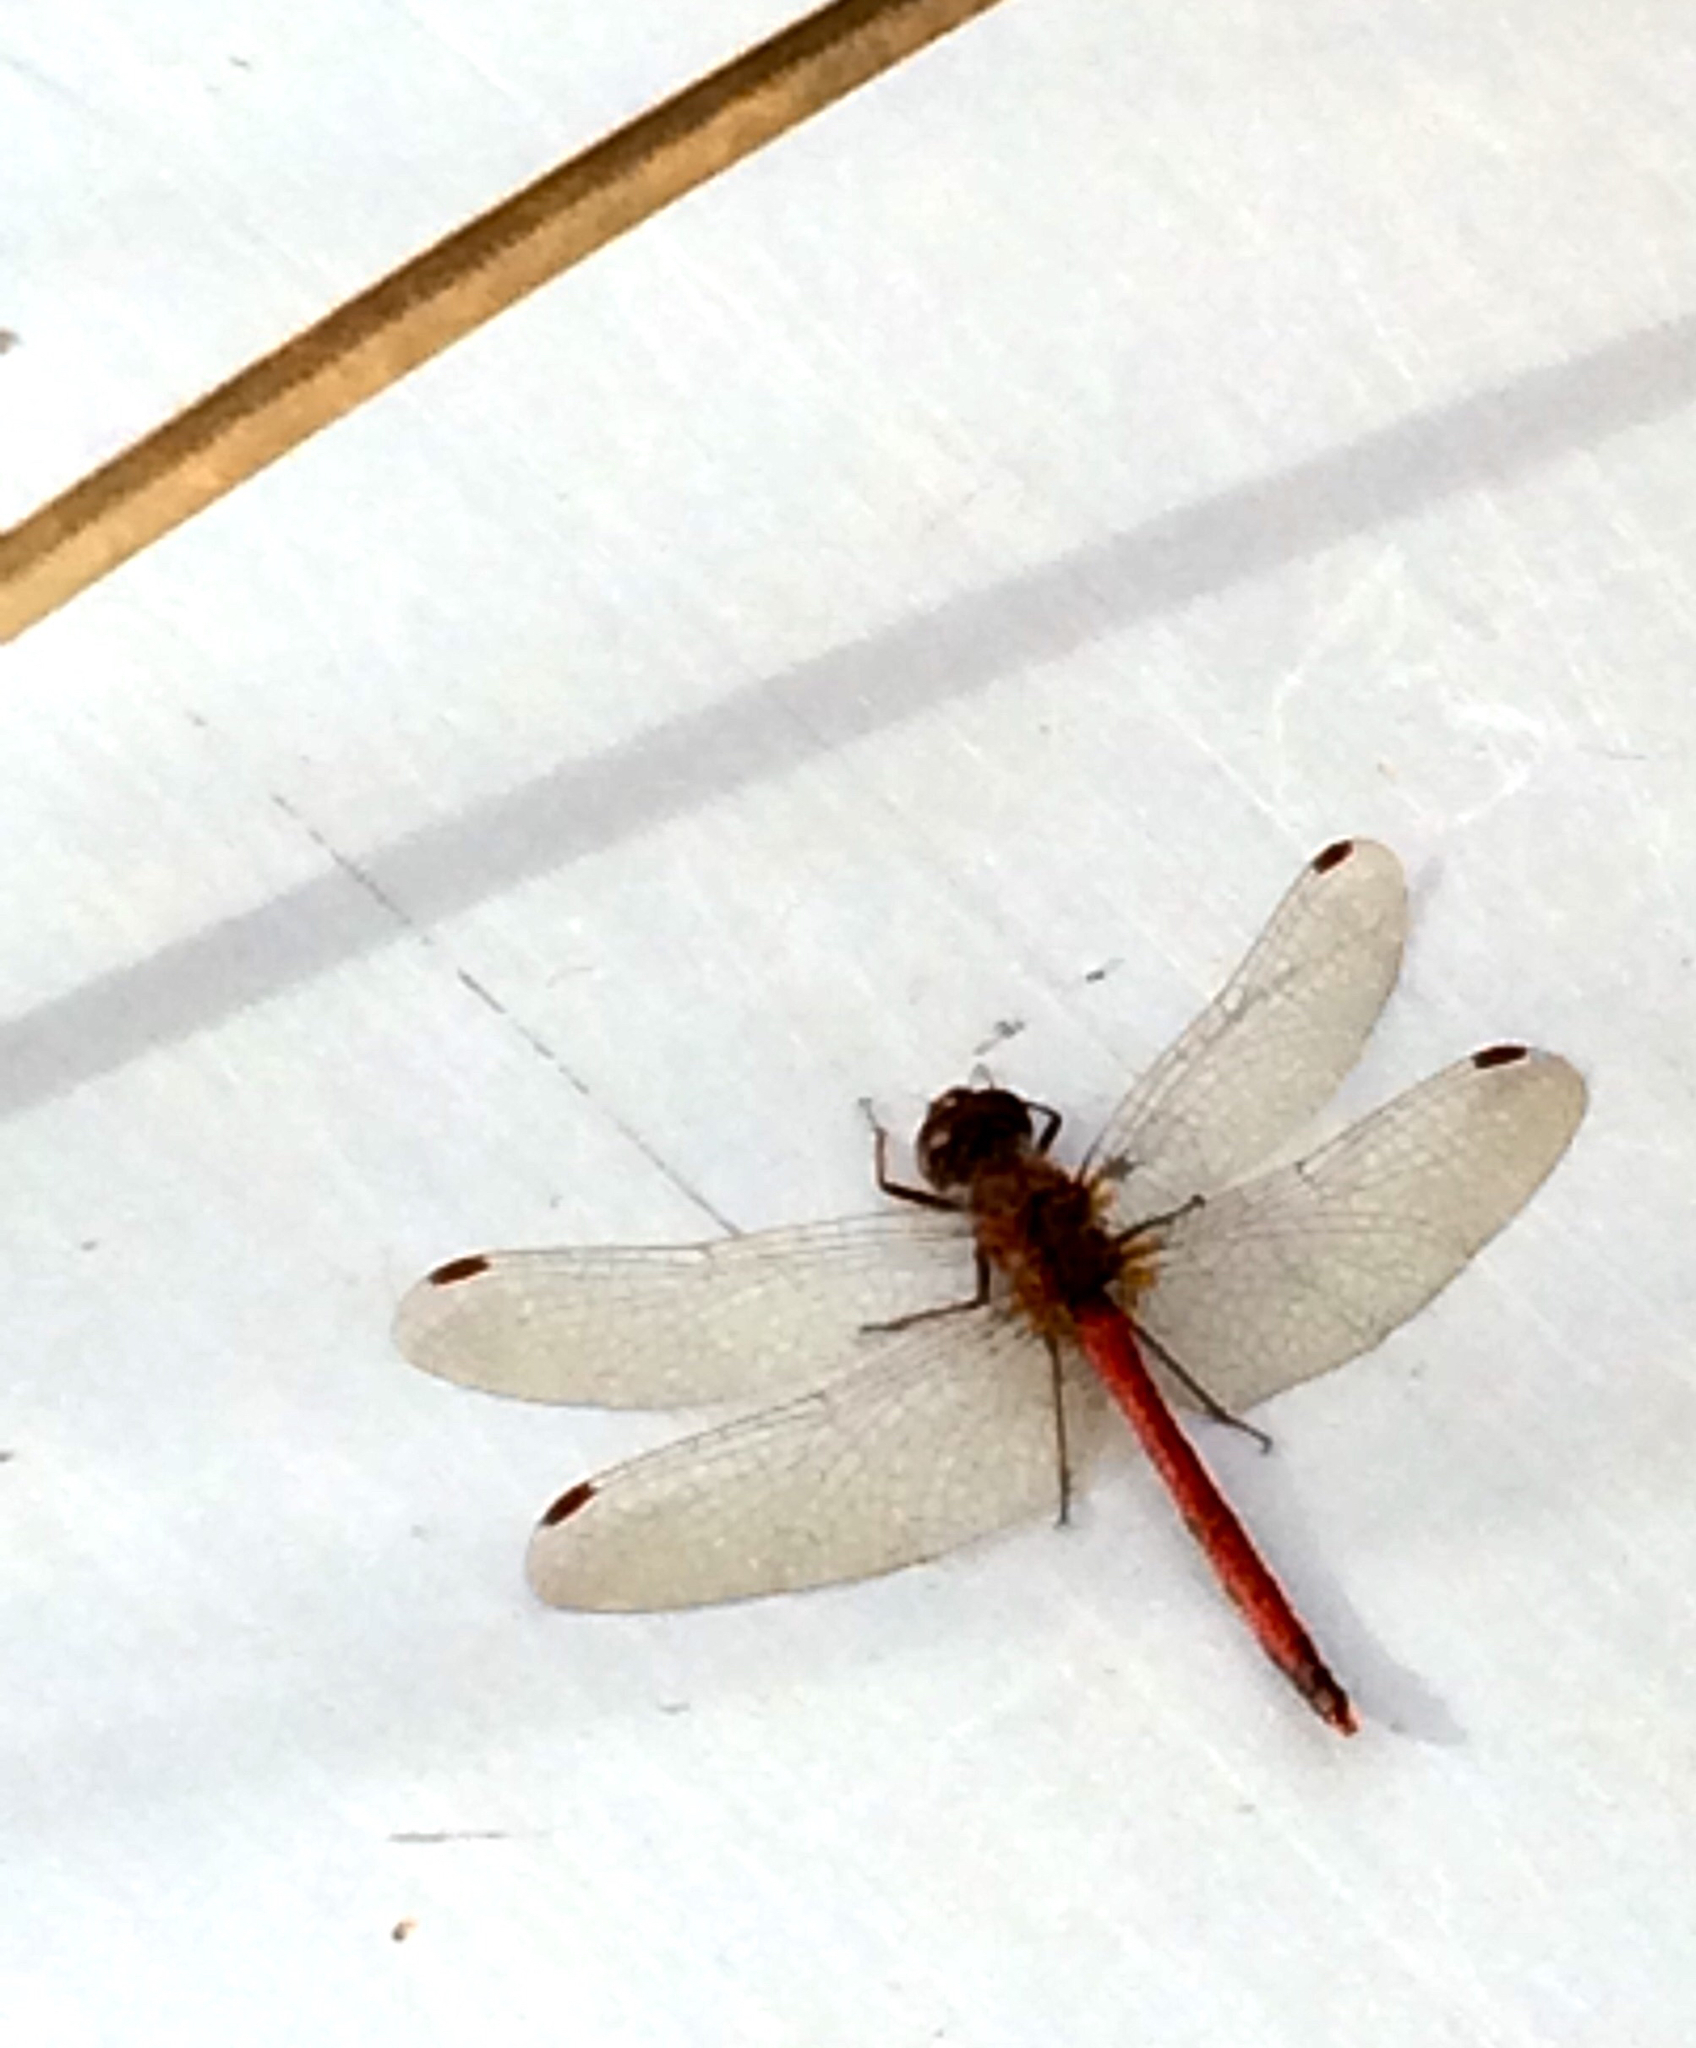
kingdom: Animalia
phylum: Arthropoda
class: Insecta
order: Odonata
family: Libellulidae
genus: Sympetrum
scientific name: Sympetrum vicinum
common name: Autumn meadowhawk
